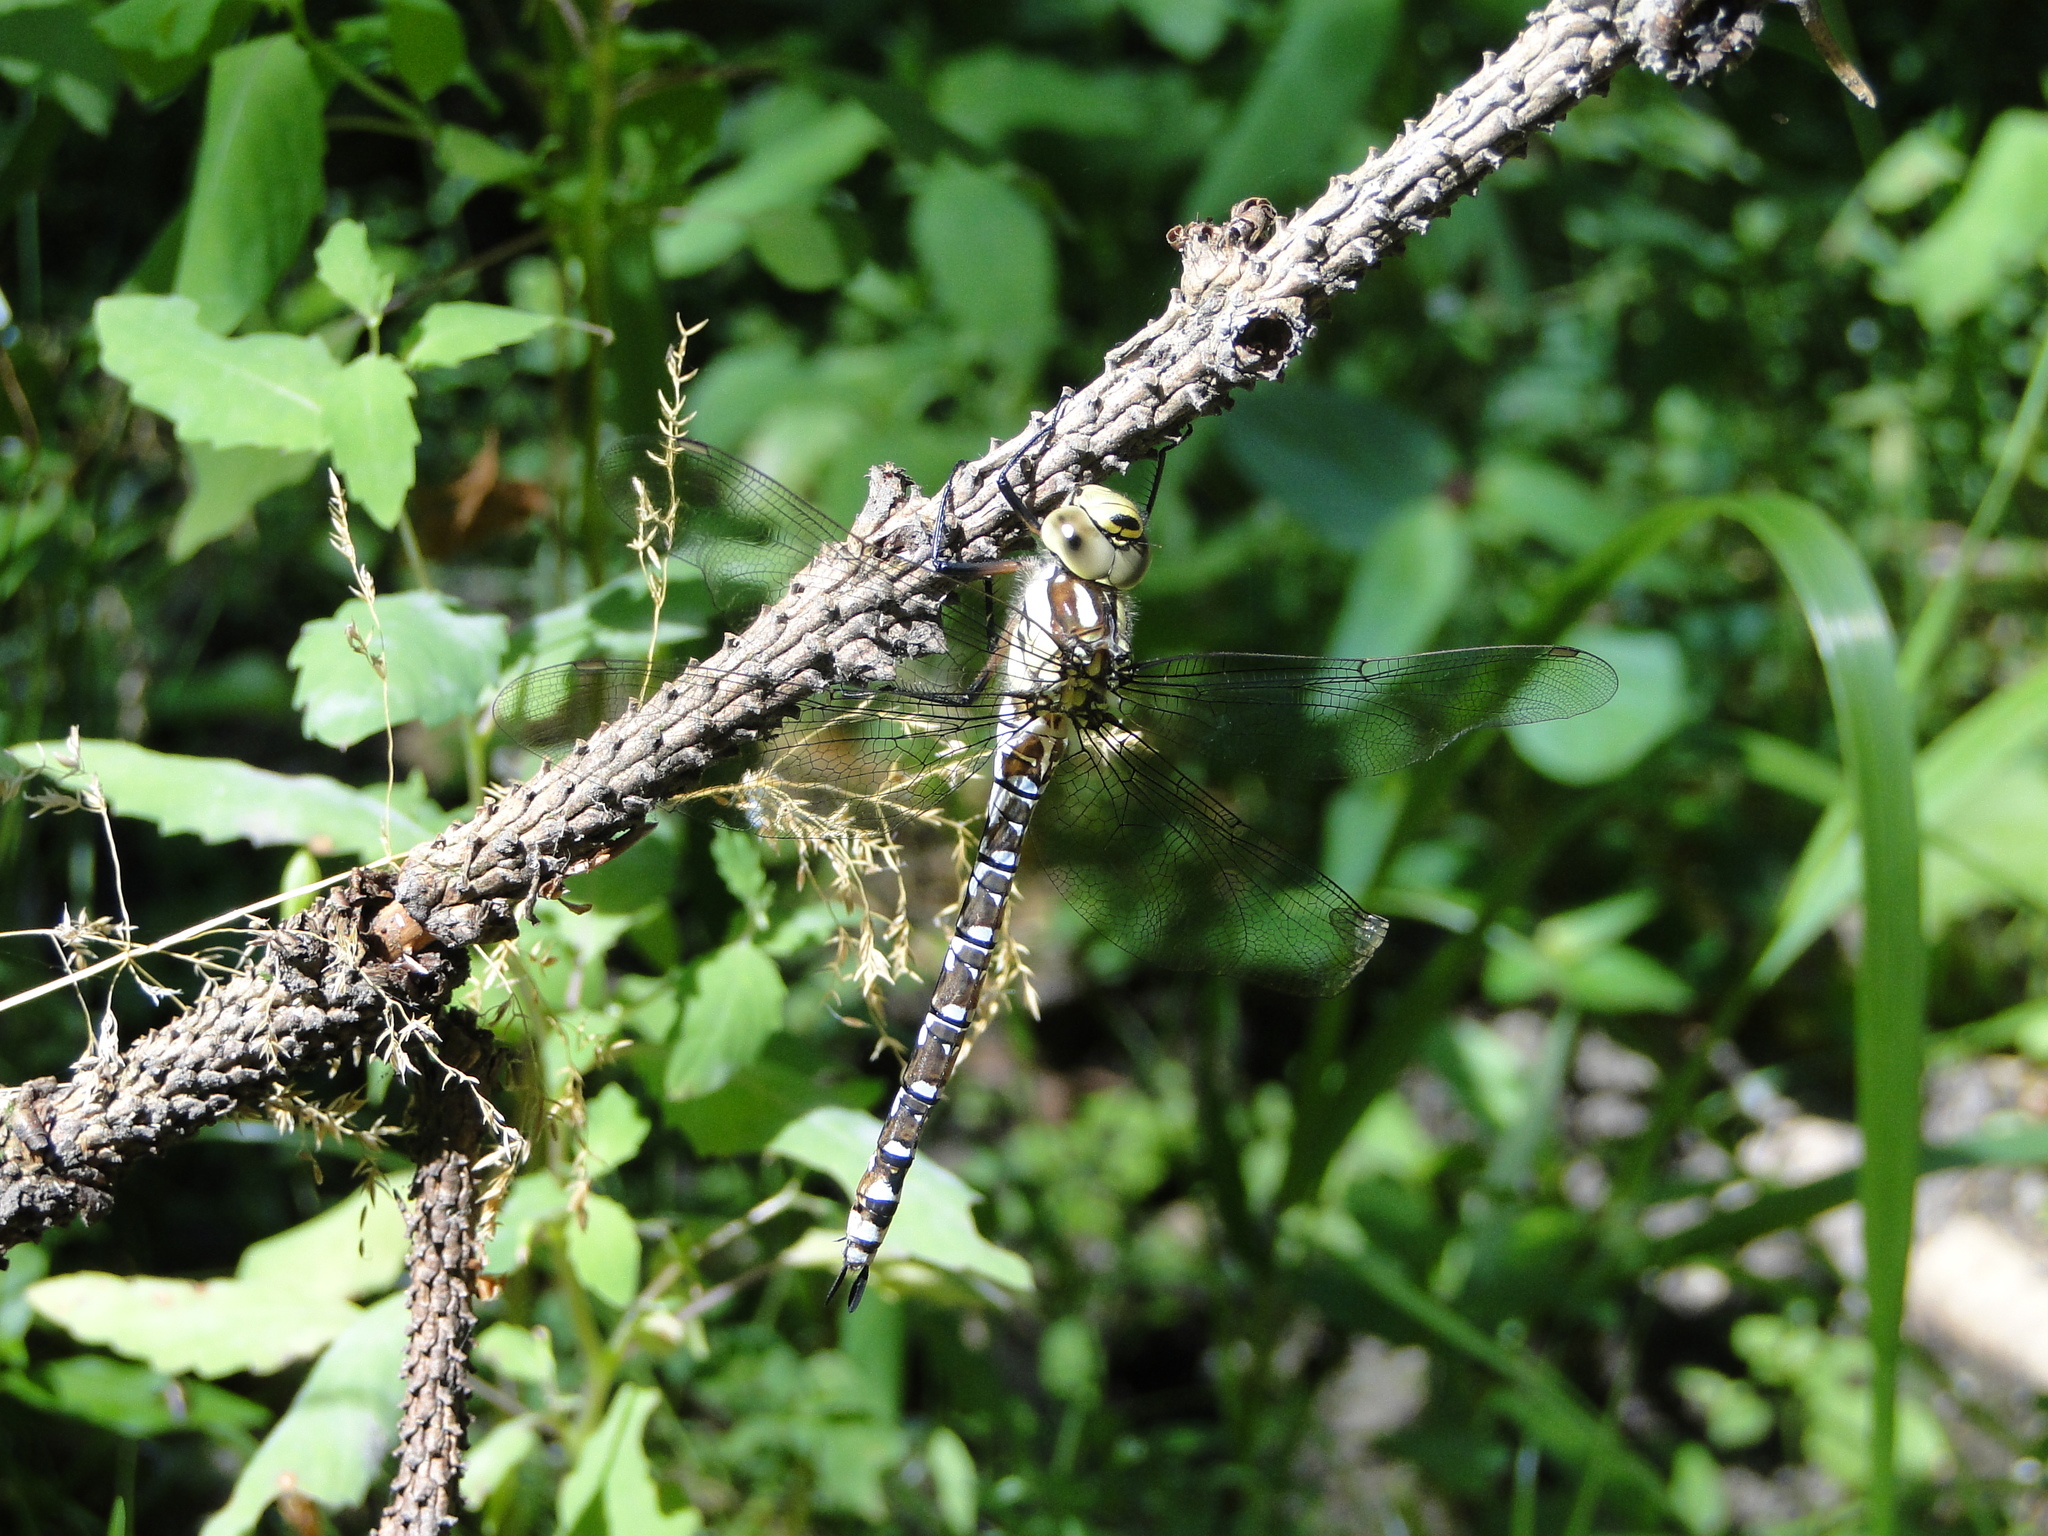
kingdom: Animalia
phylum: Arthropoda
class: Insecta
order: Odonata
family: Aeshnidae
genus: Aeshna
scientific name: Aeshna cyanea
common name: Southern hawker
